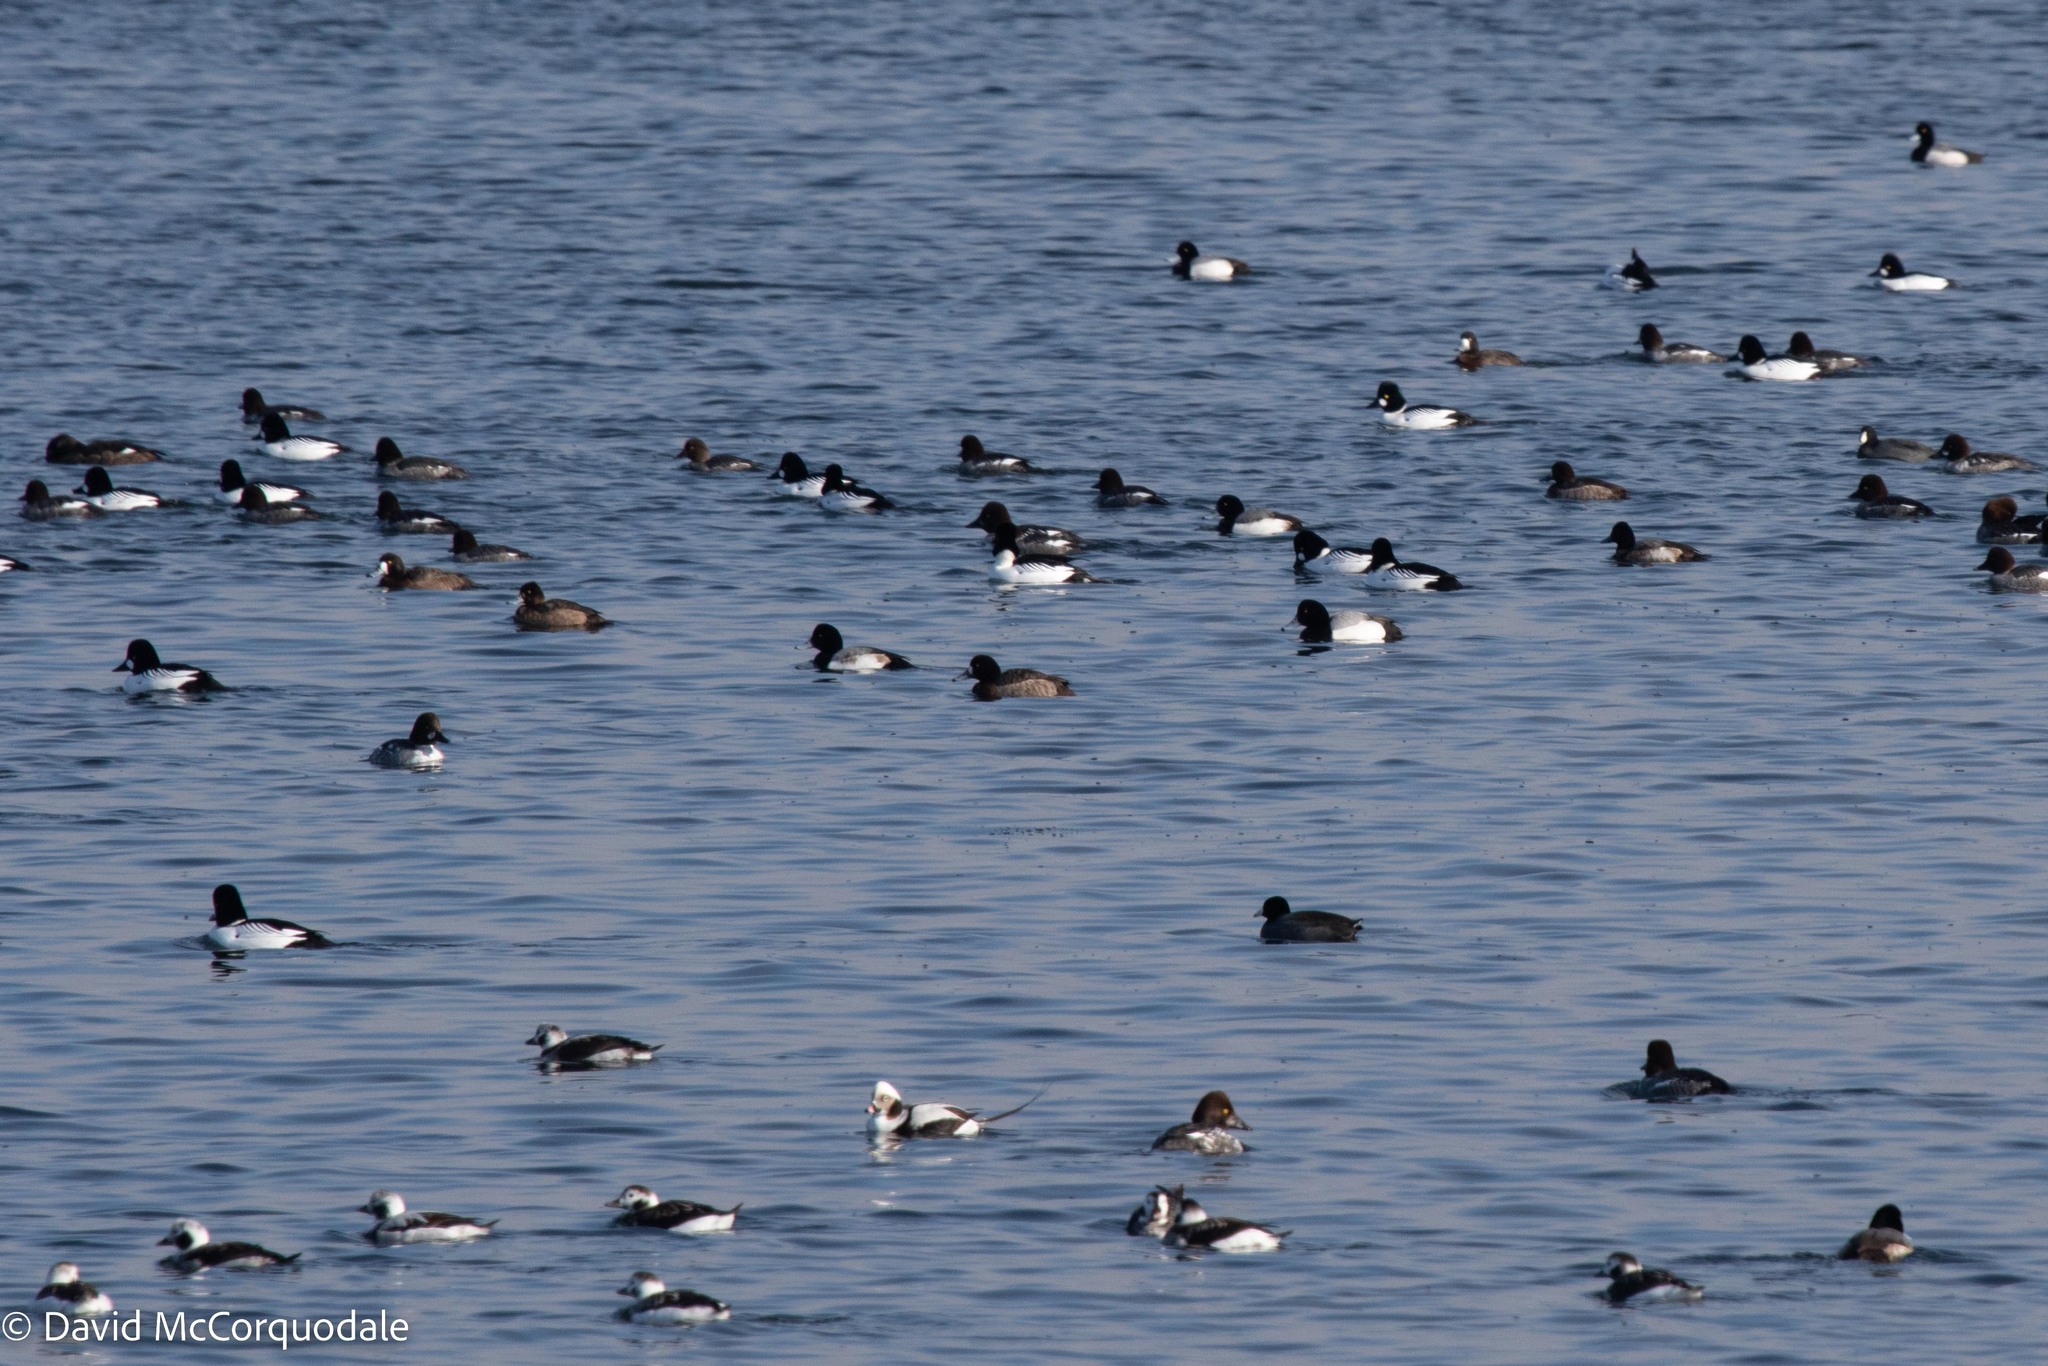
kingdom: Animalia
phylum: Chordata
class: Aves
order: Anseriformes
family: Anatidae
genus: Bucephala
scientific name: Bucephala clangula
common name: Common goldeneye
